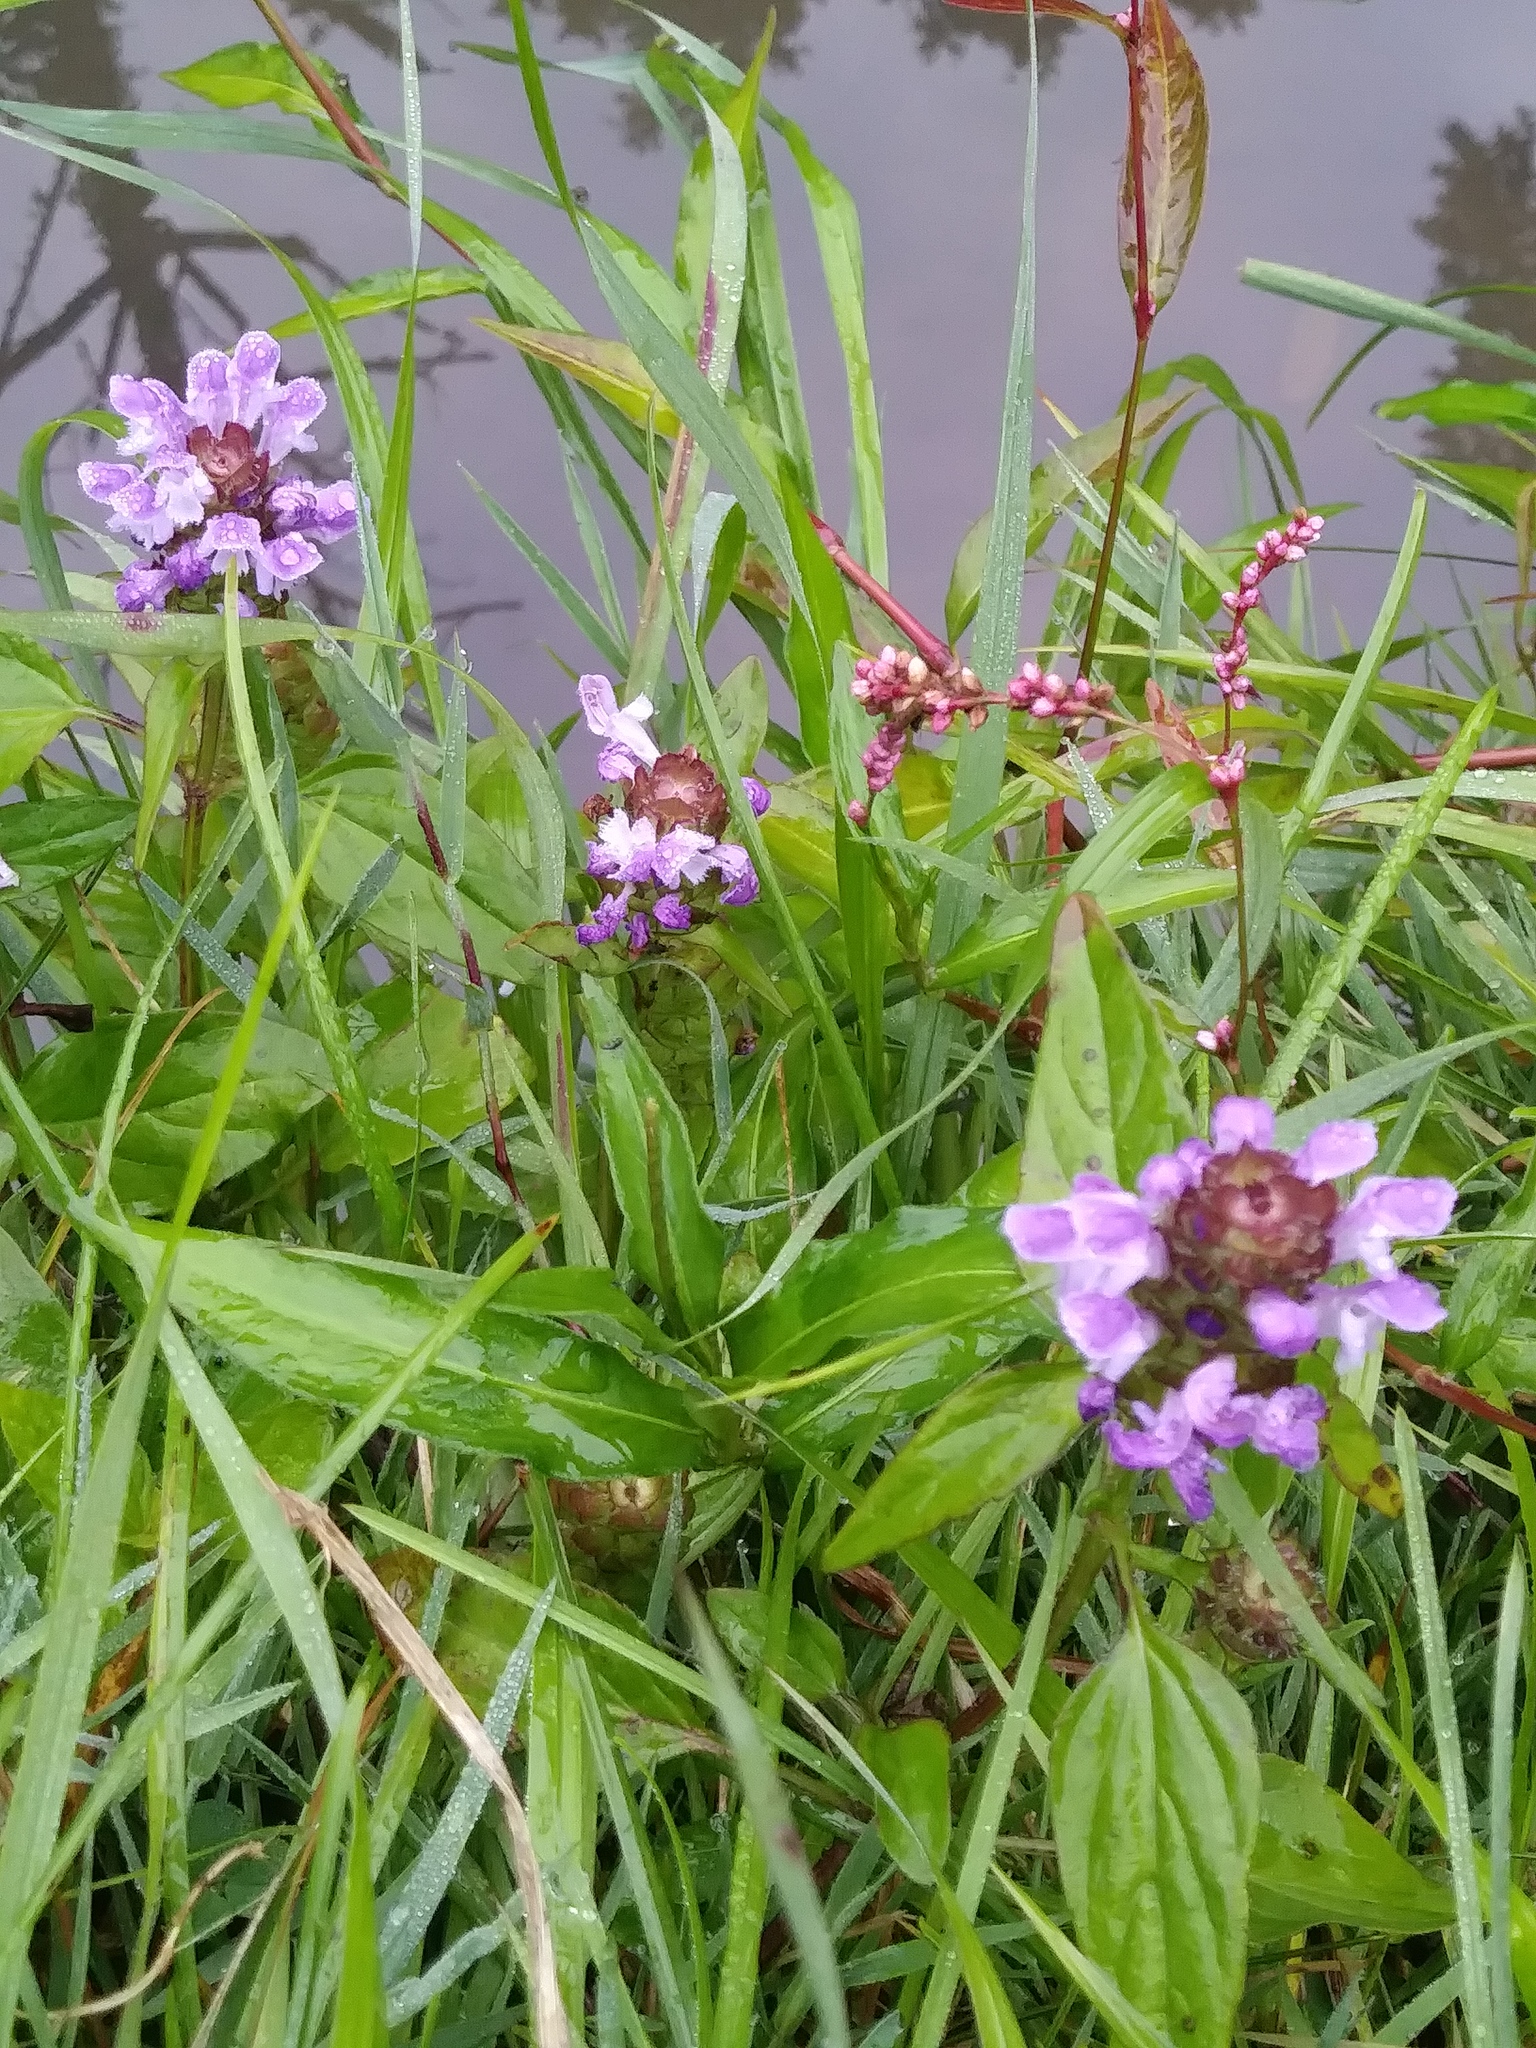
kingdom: Plantae
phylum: Tracheophyta
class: Magnoliopsida
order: Lamiales
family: Lamiaceae
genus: Prunella
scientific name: Prunella vulgaris
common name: Heal-all
